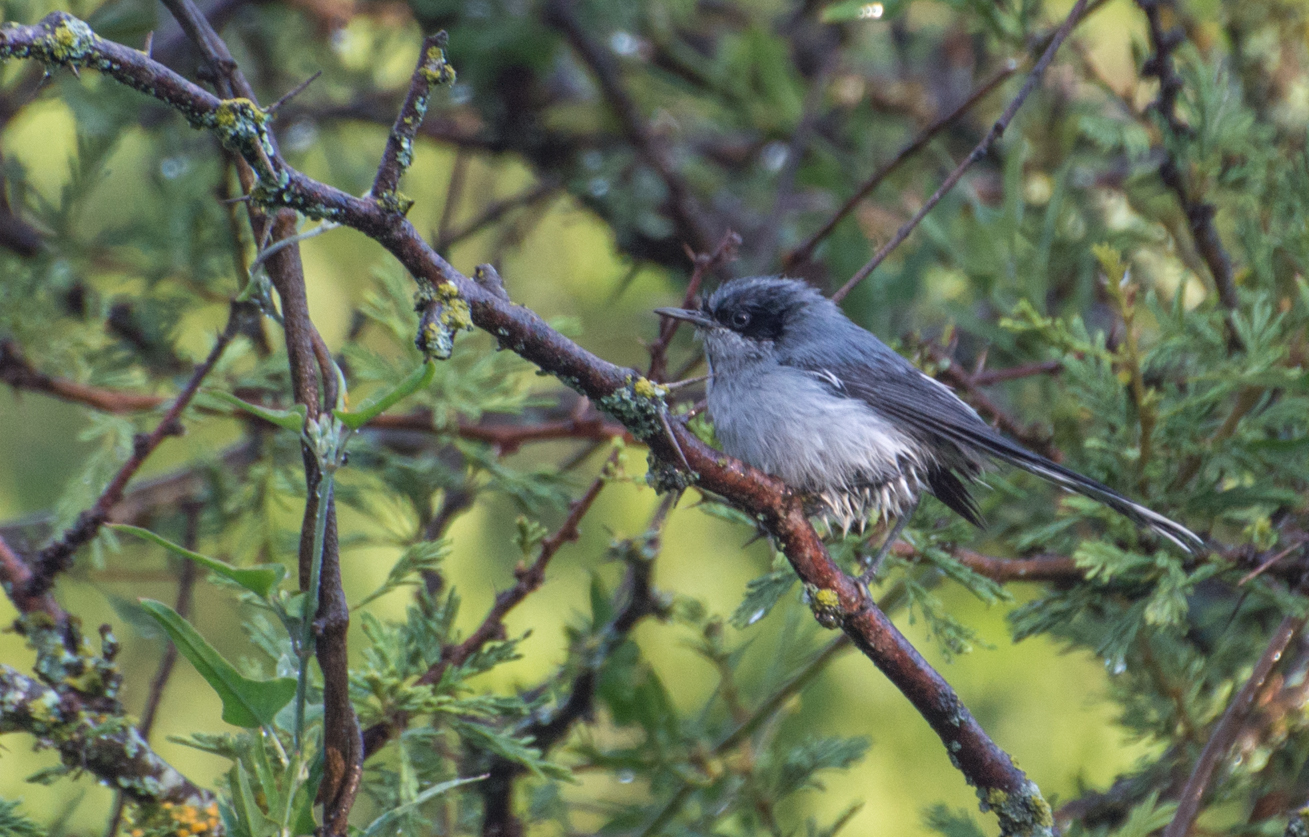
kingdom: Animalia
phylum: Chordata
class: Aves
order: Passeriformes
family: Polioptilidae
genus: Polioptila
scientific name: Polioptila dumicola
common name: Masked gnatcatcher
